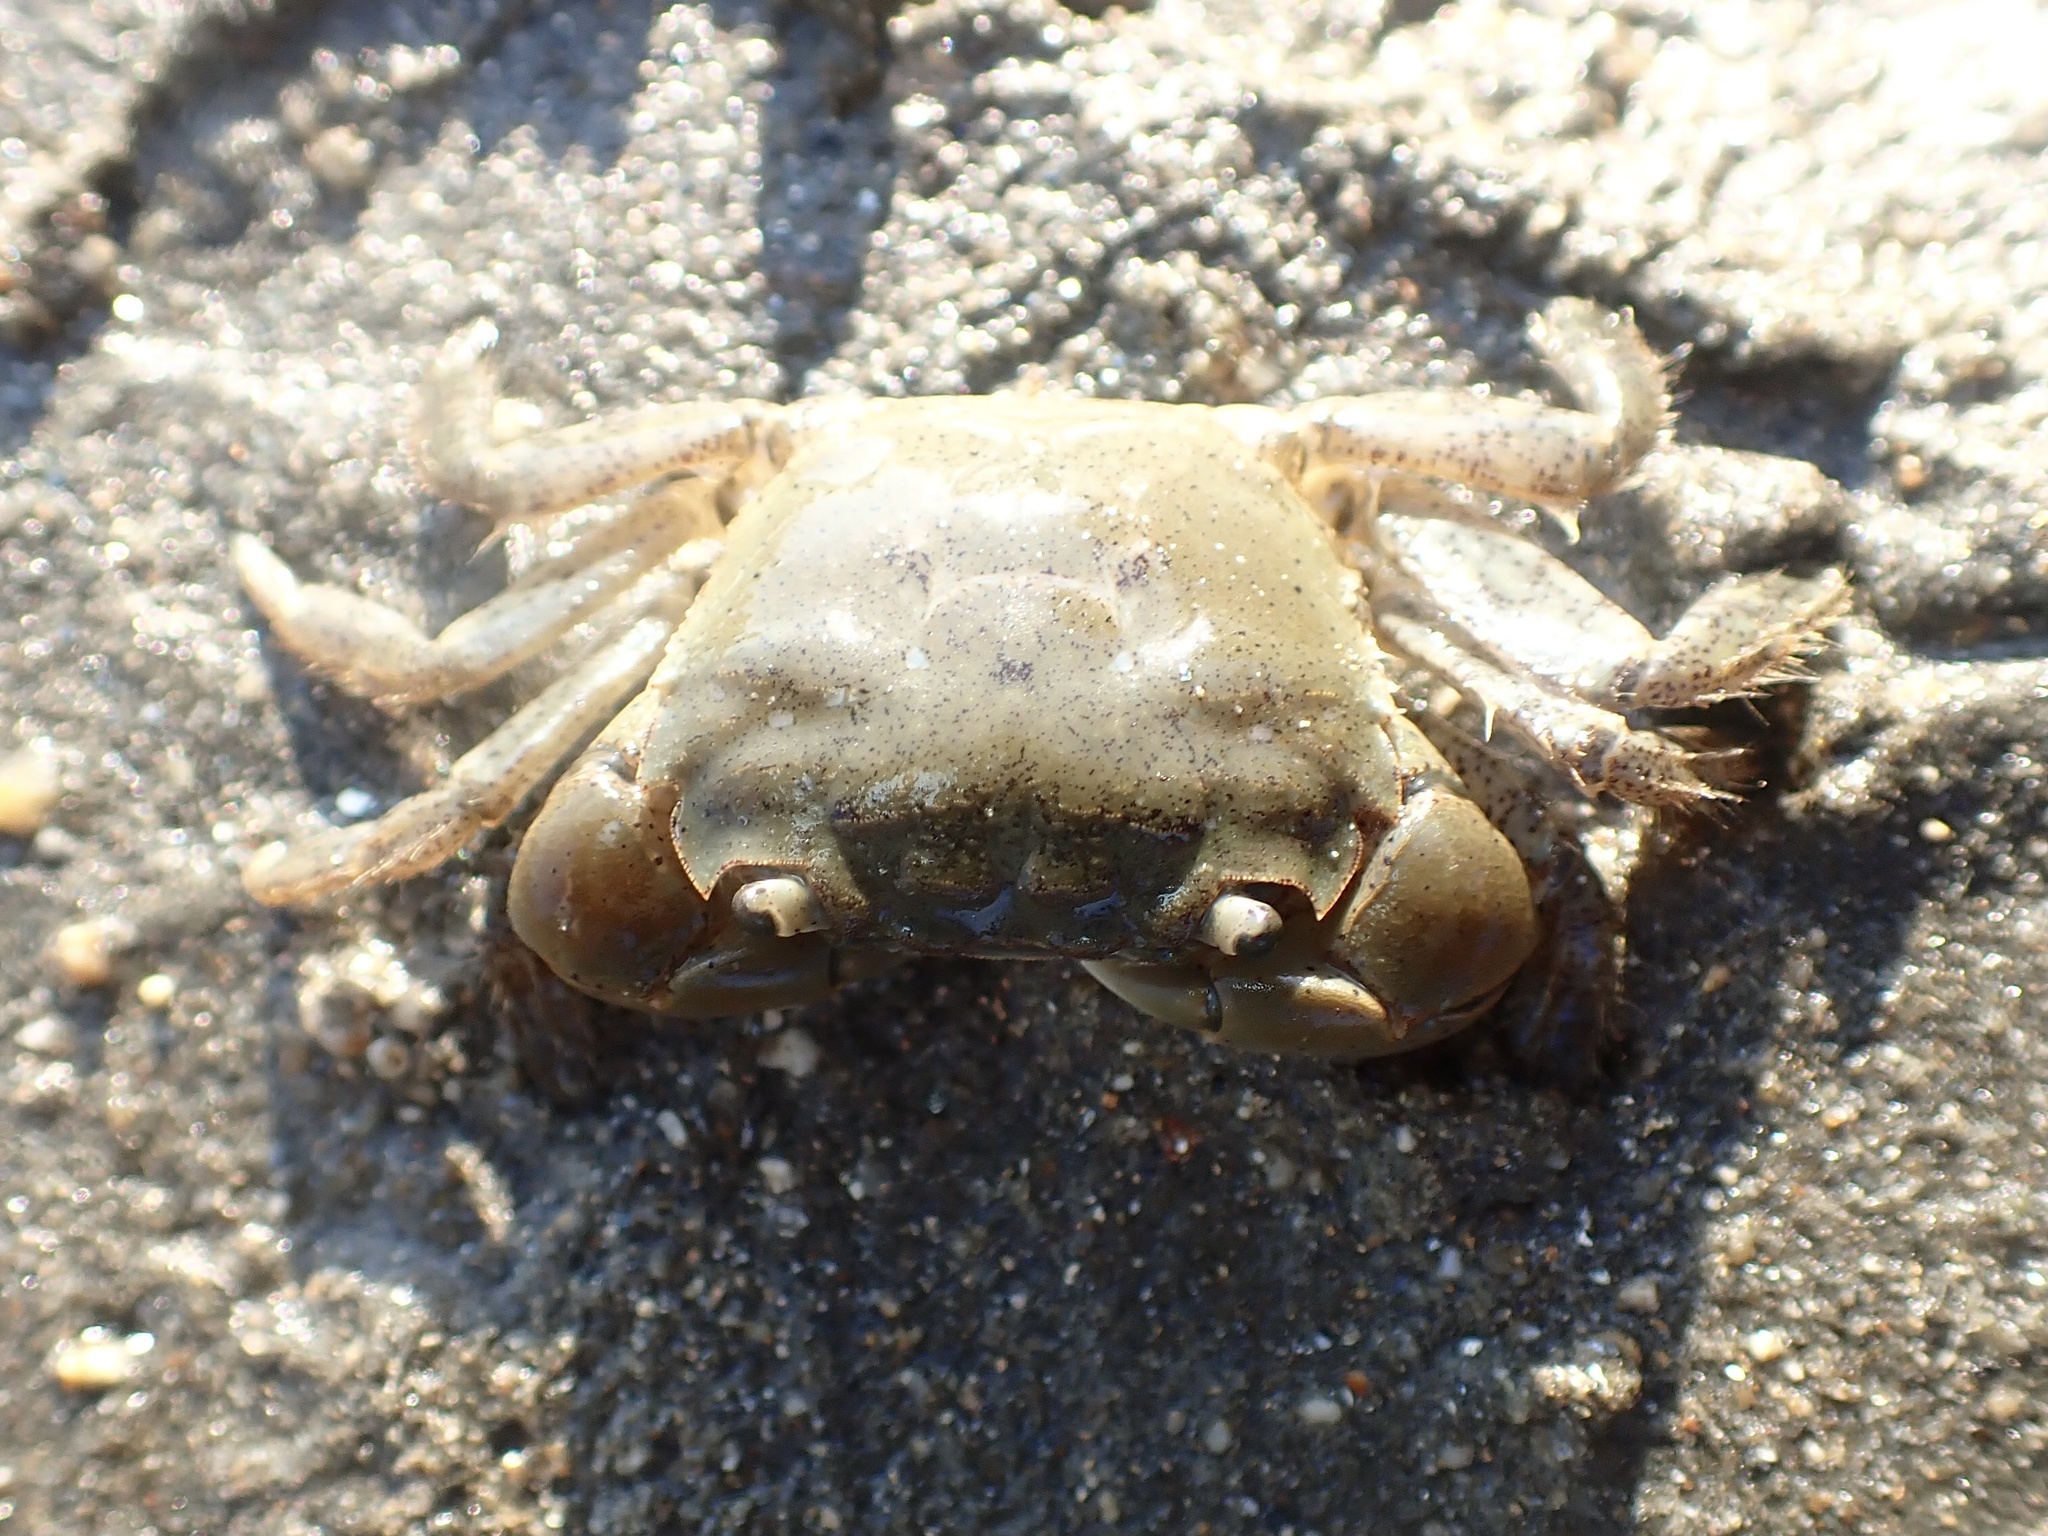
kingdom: Animalia
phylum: Arthropoda
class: Malacostraca
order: Decapoda
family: Varunidae
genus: Hemigrapsus
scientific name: Hemigrapsus oregonensis
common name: Yellow shore crab
